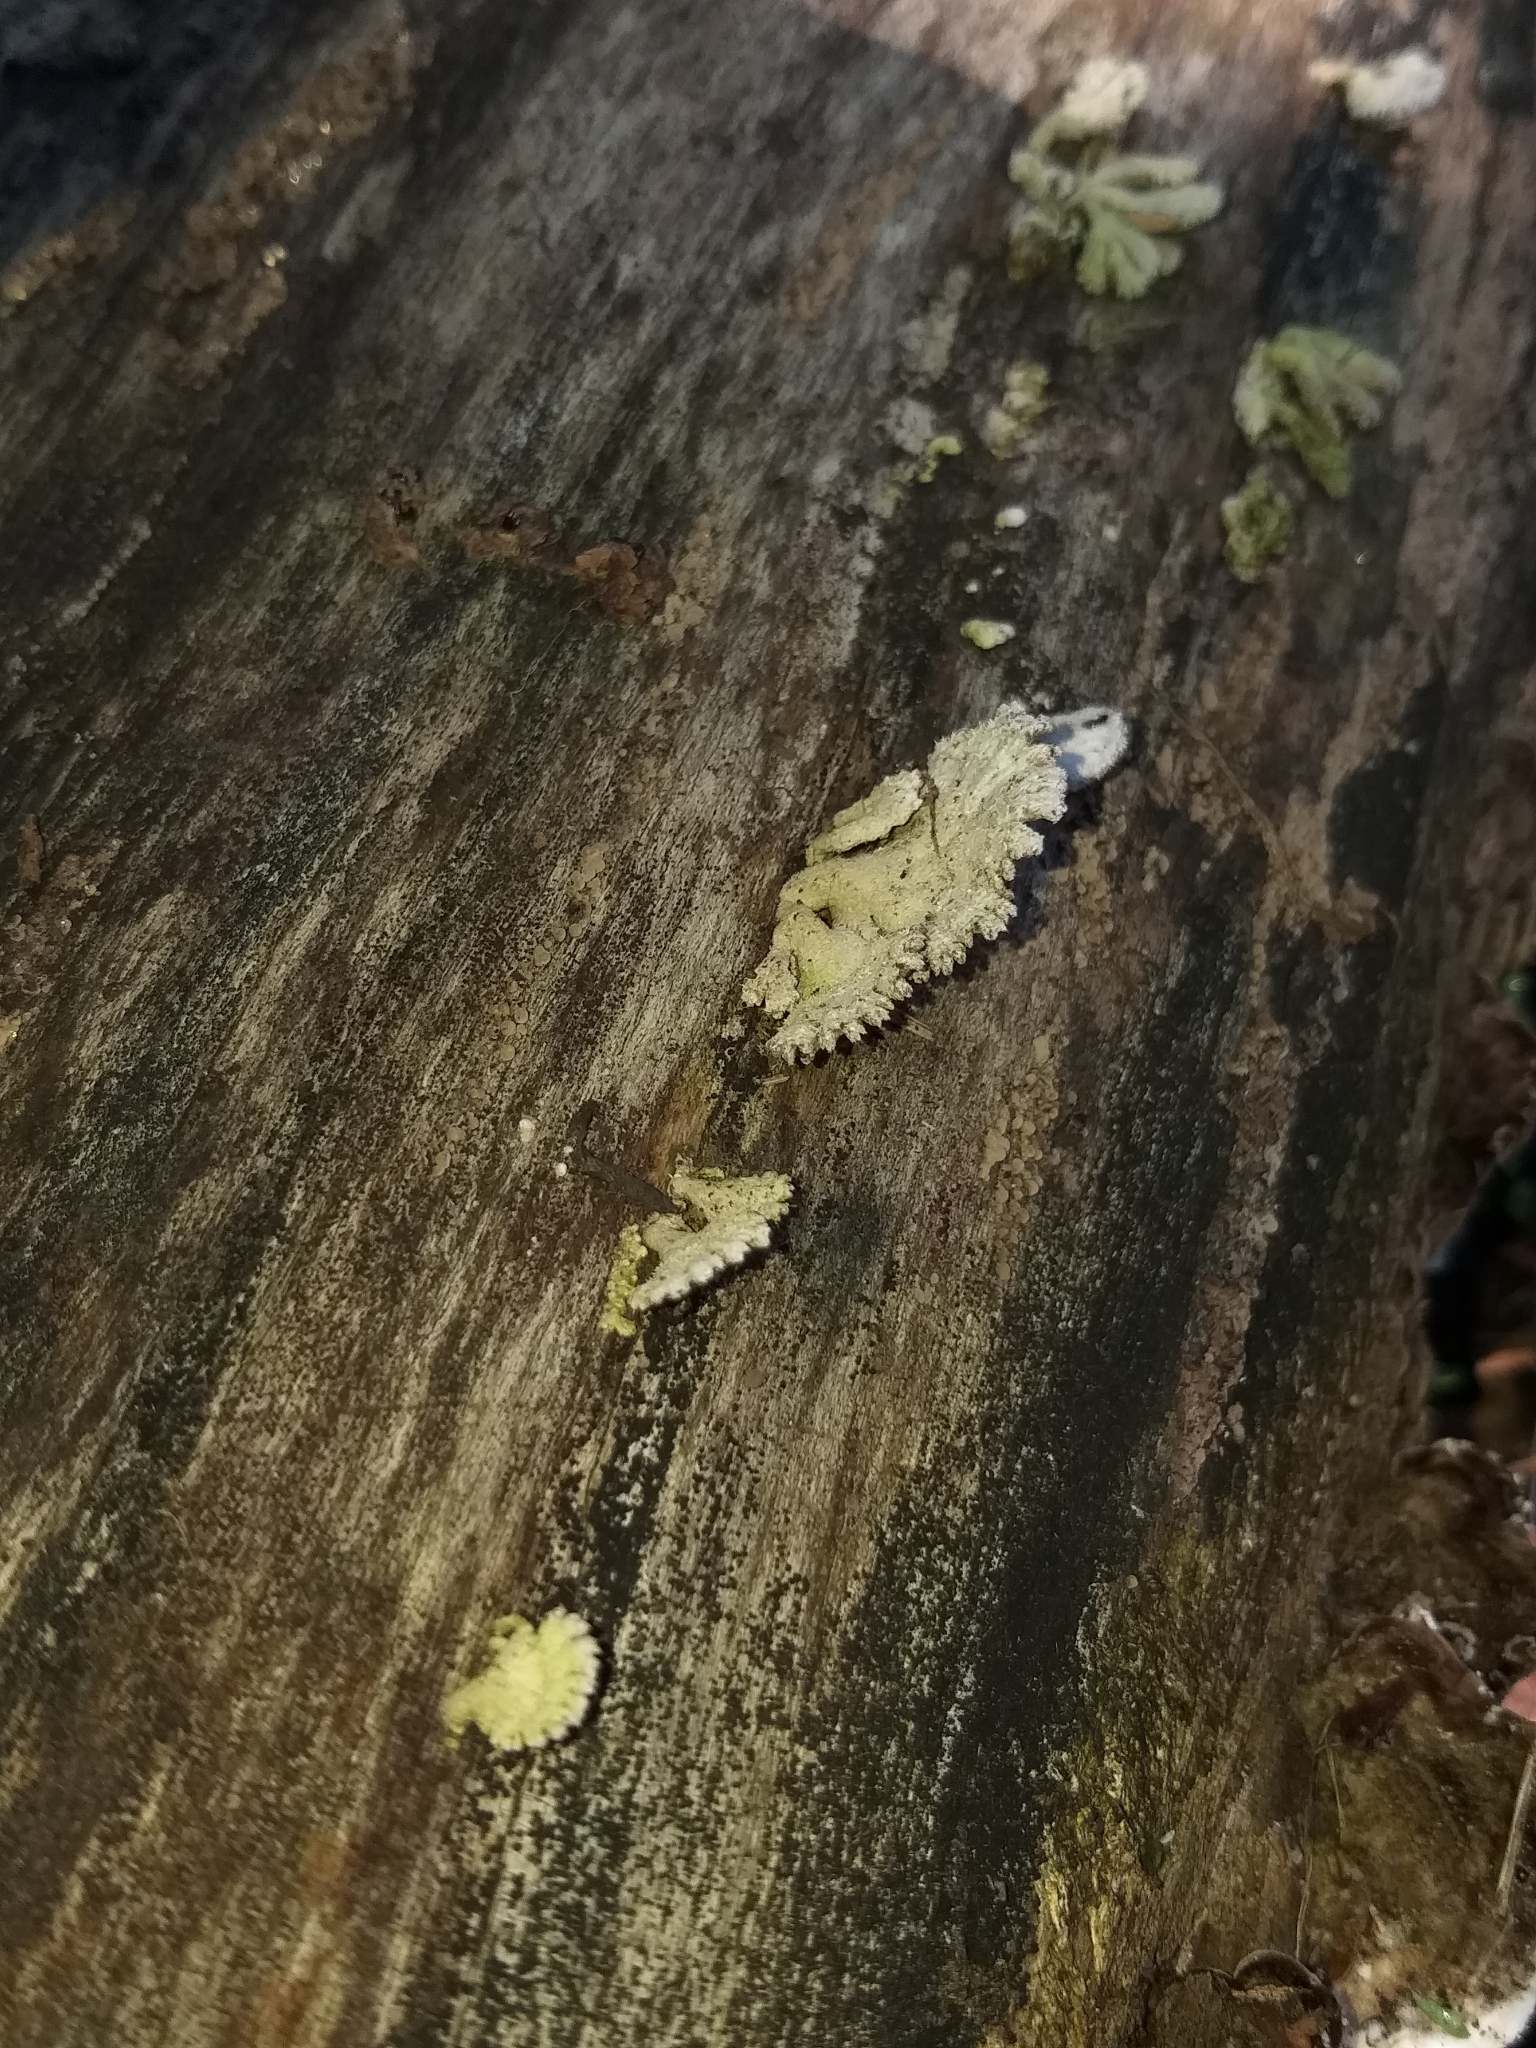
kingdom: Fungi
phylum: Basidiomycota
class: Agaricomycetes
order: Agaricales
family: Schizophyllaceae
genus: Schizophyllum
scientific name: Schizophyllum commune
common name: Common porecrust
